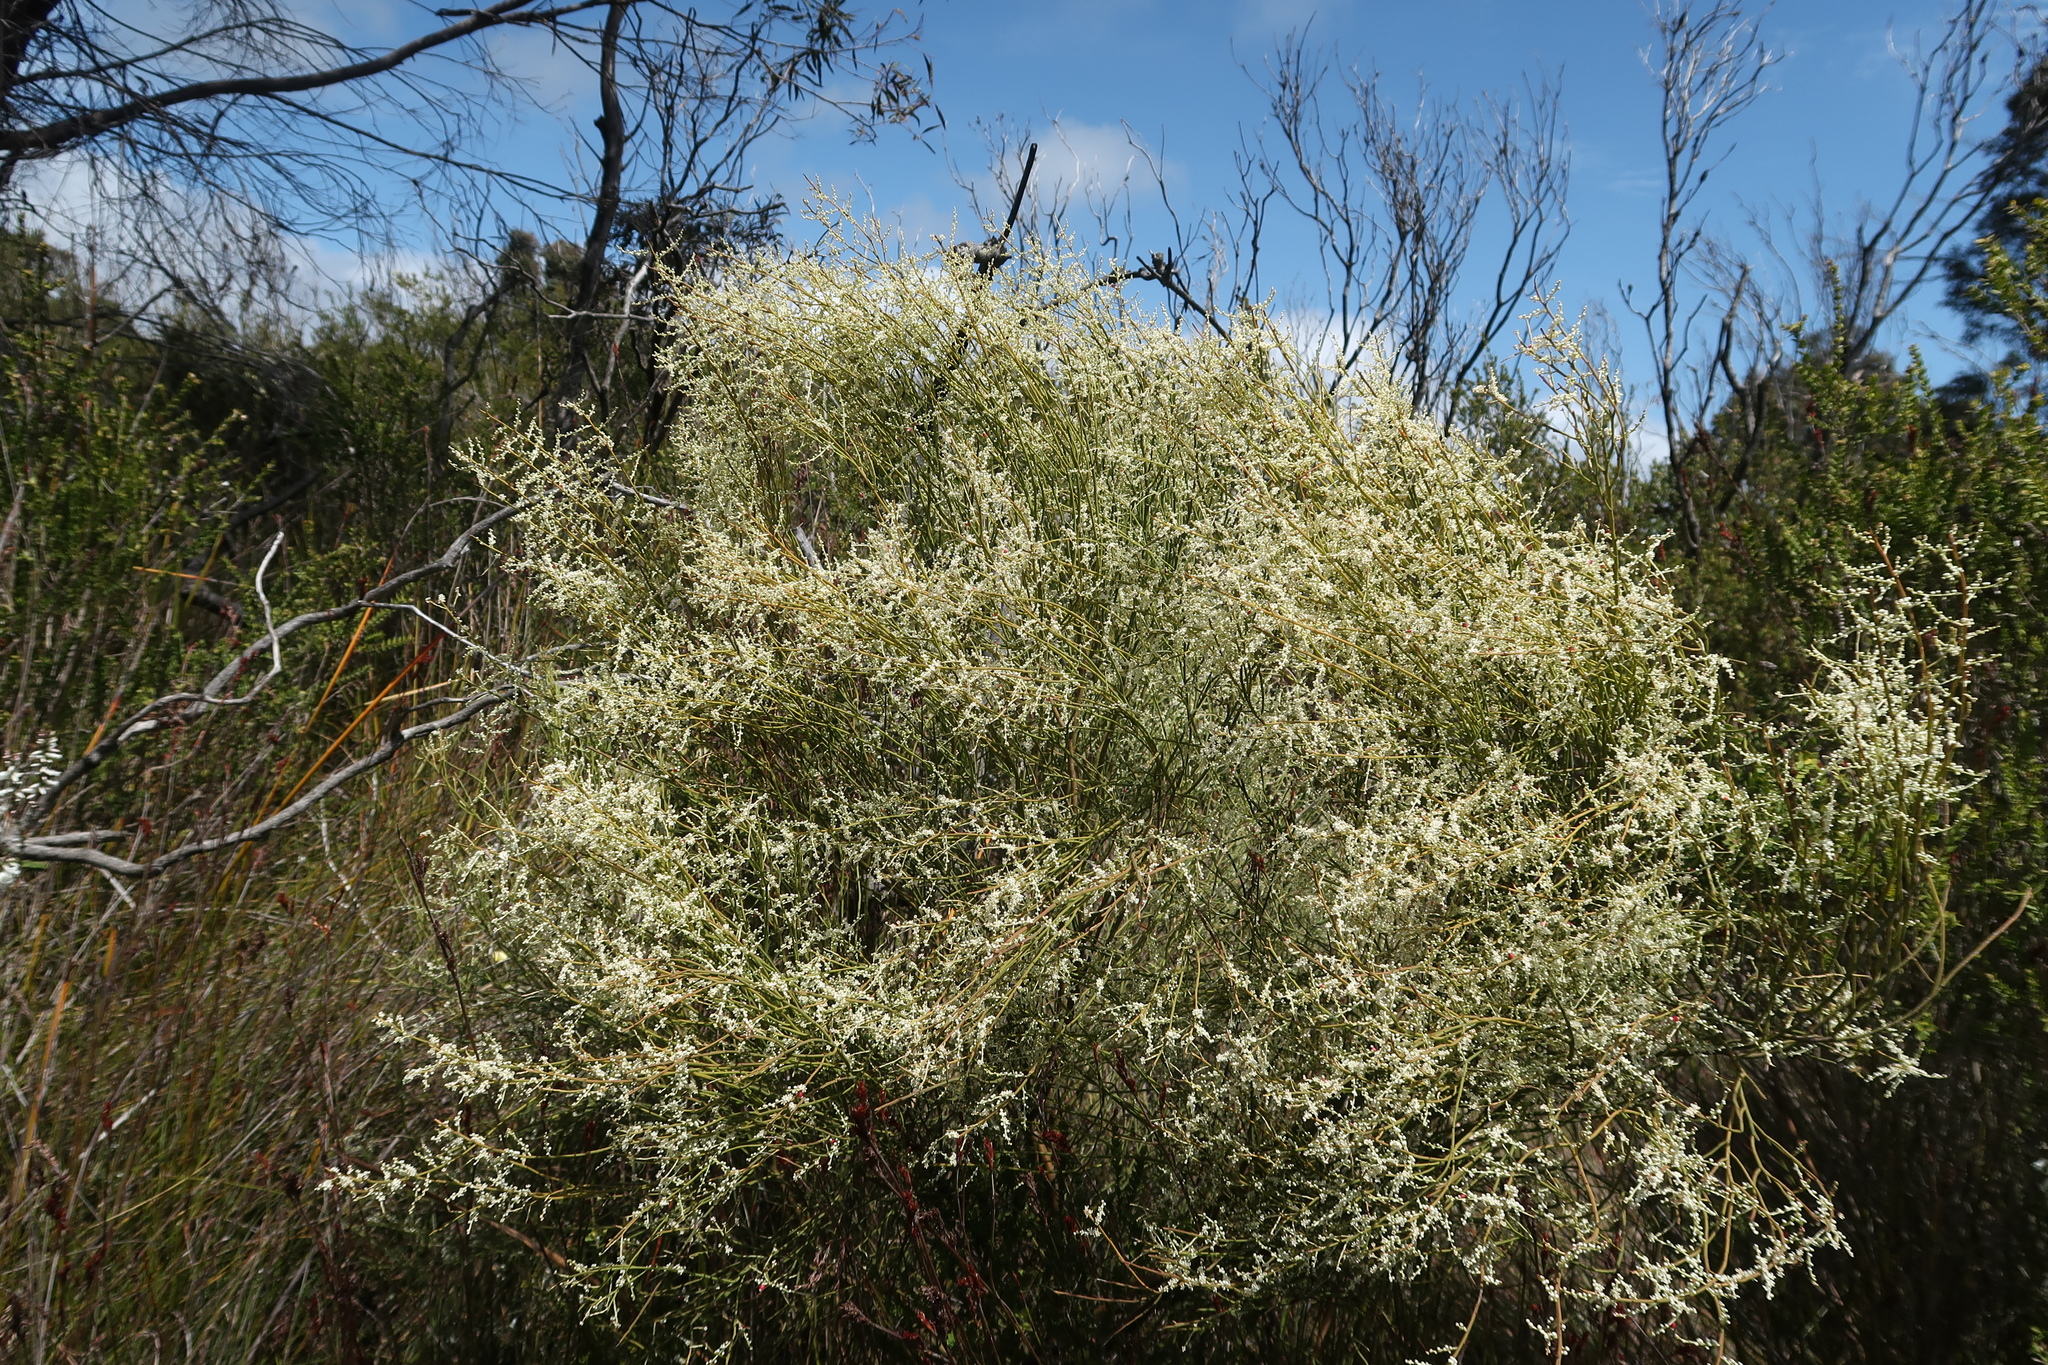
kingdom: Plantae
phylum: Tracheophyta
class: Magnoliopsida
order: Santalales
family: Amphorogynaceae
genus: Leptomeria
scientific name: Leptomeria drupacea
